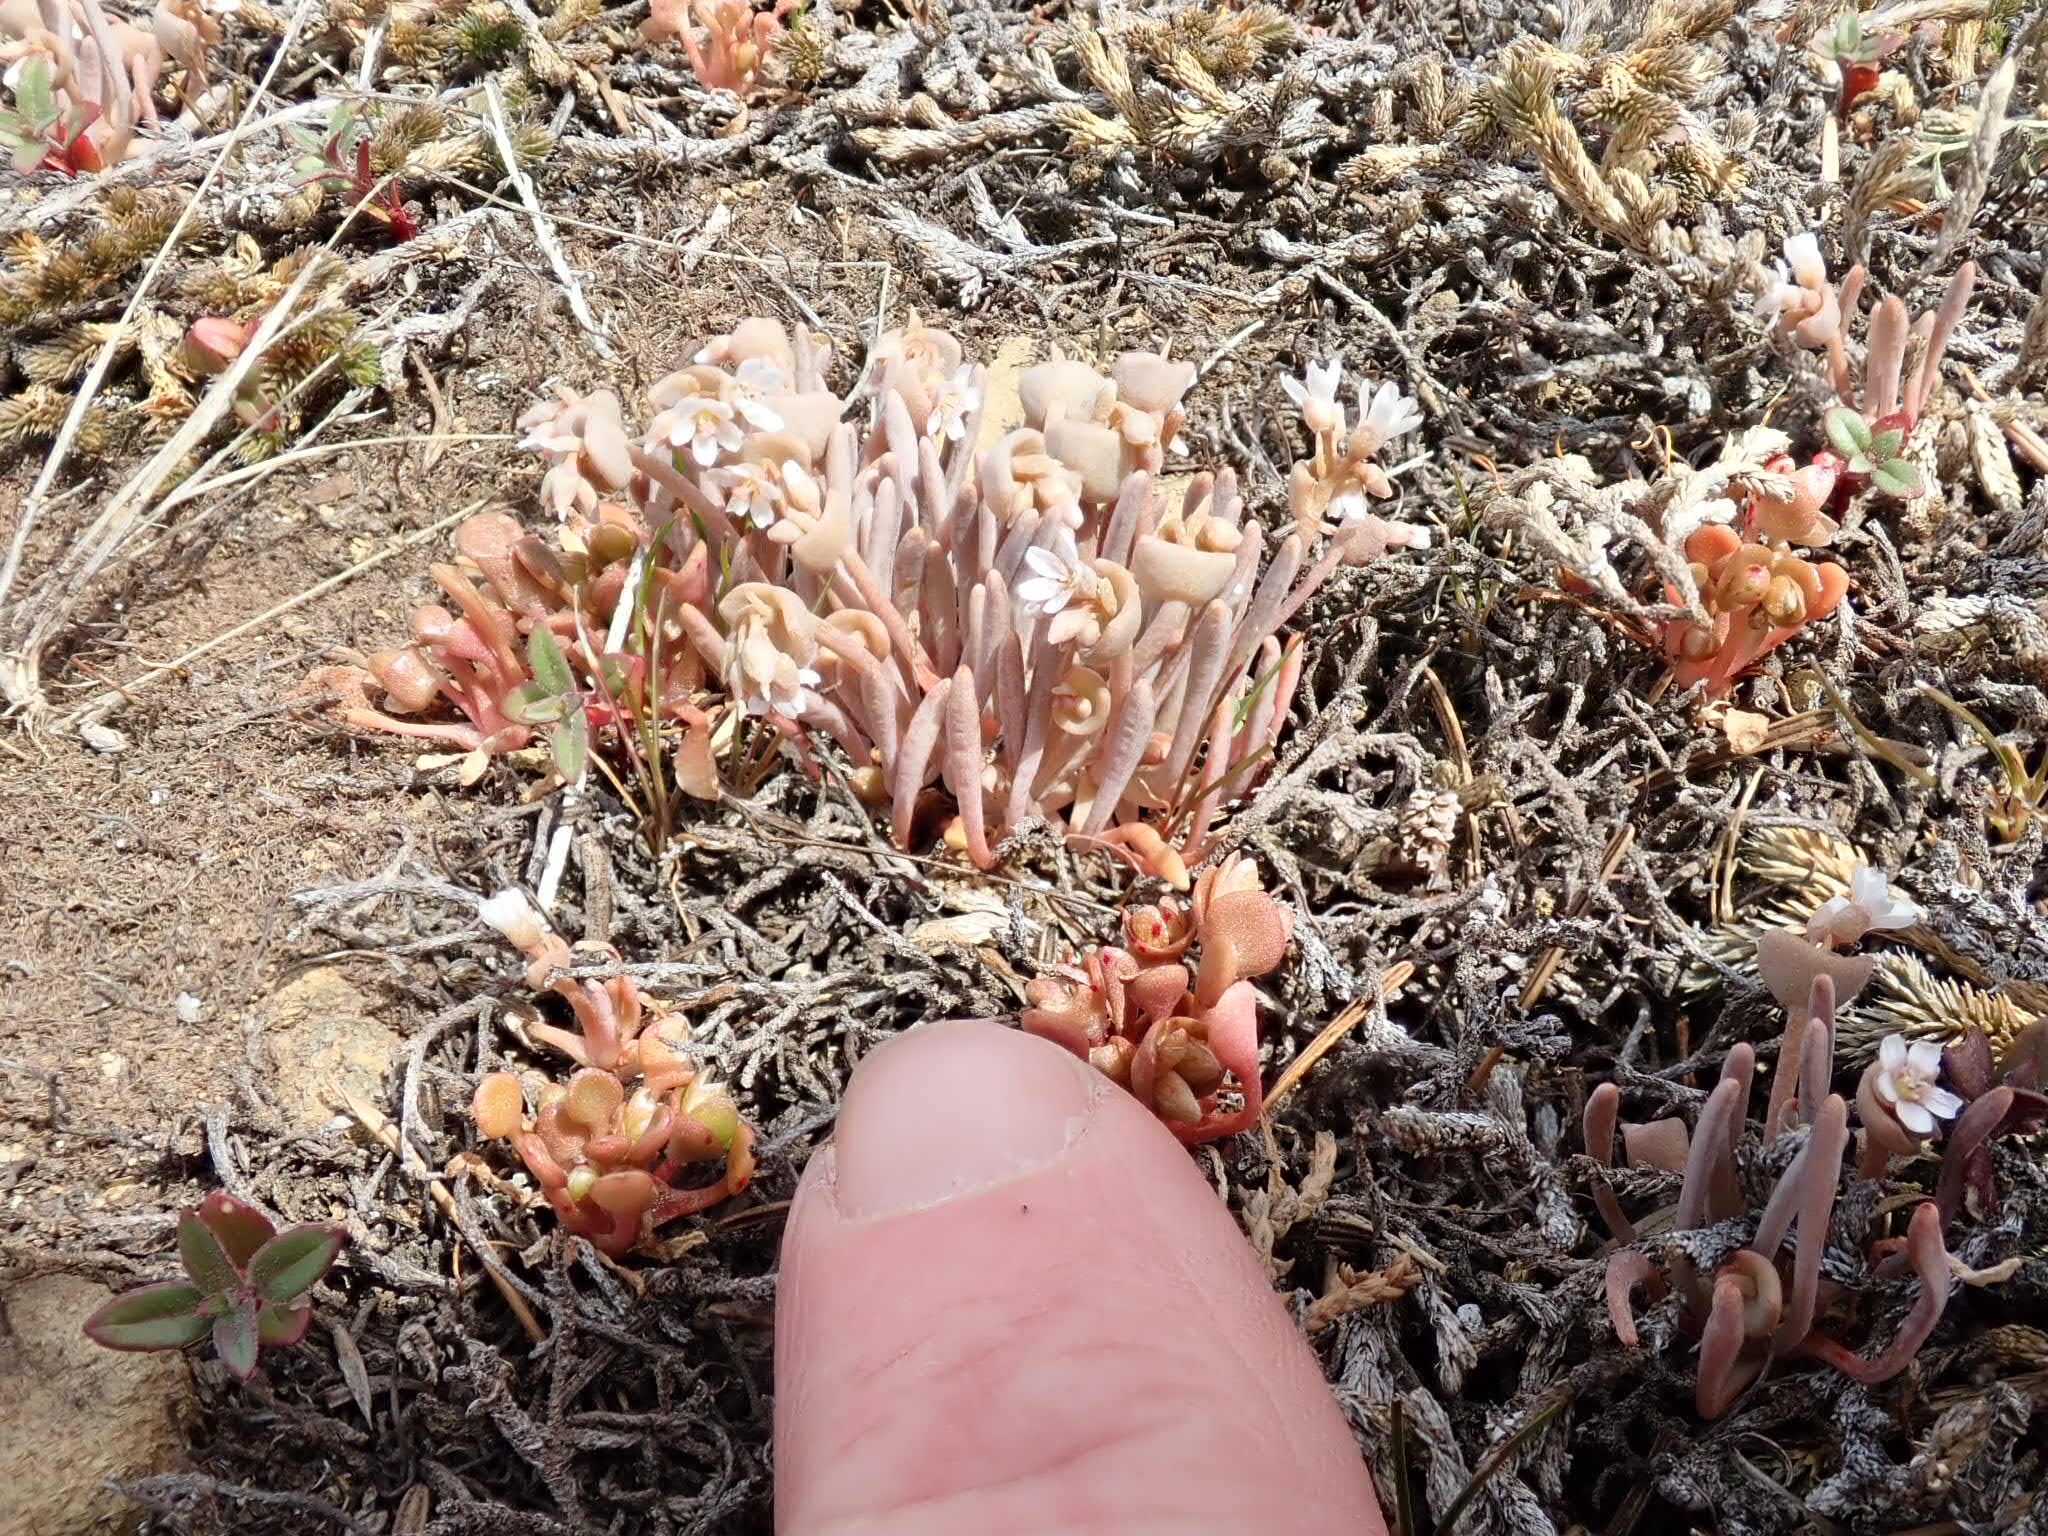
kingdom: Plantae
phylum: Tracheophyta
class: Magnoliopsida
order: Caryophyllales
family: Montiaceae
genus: Claytonia
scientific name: Claytonia exigua
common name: Pale spring beauty
